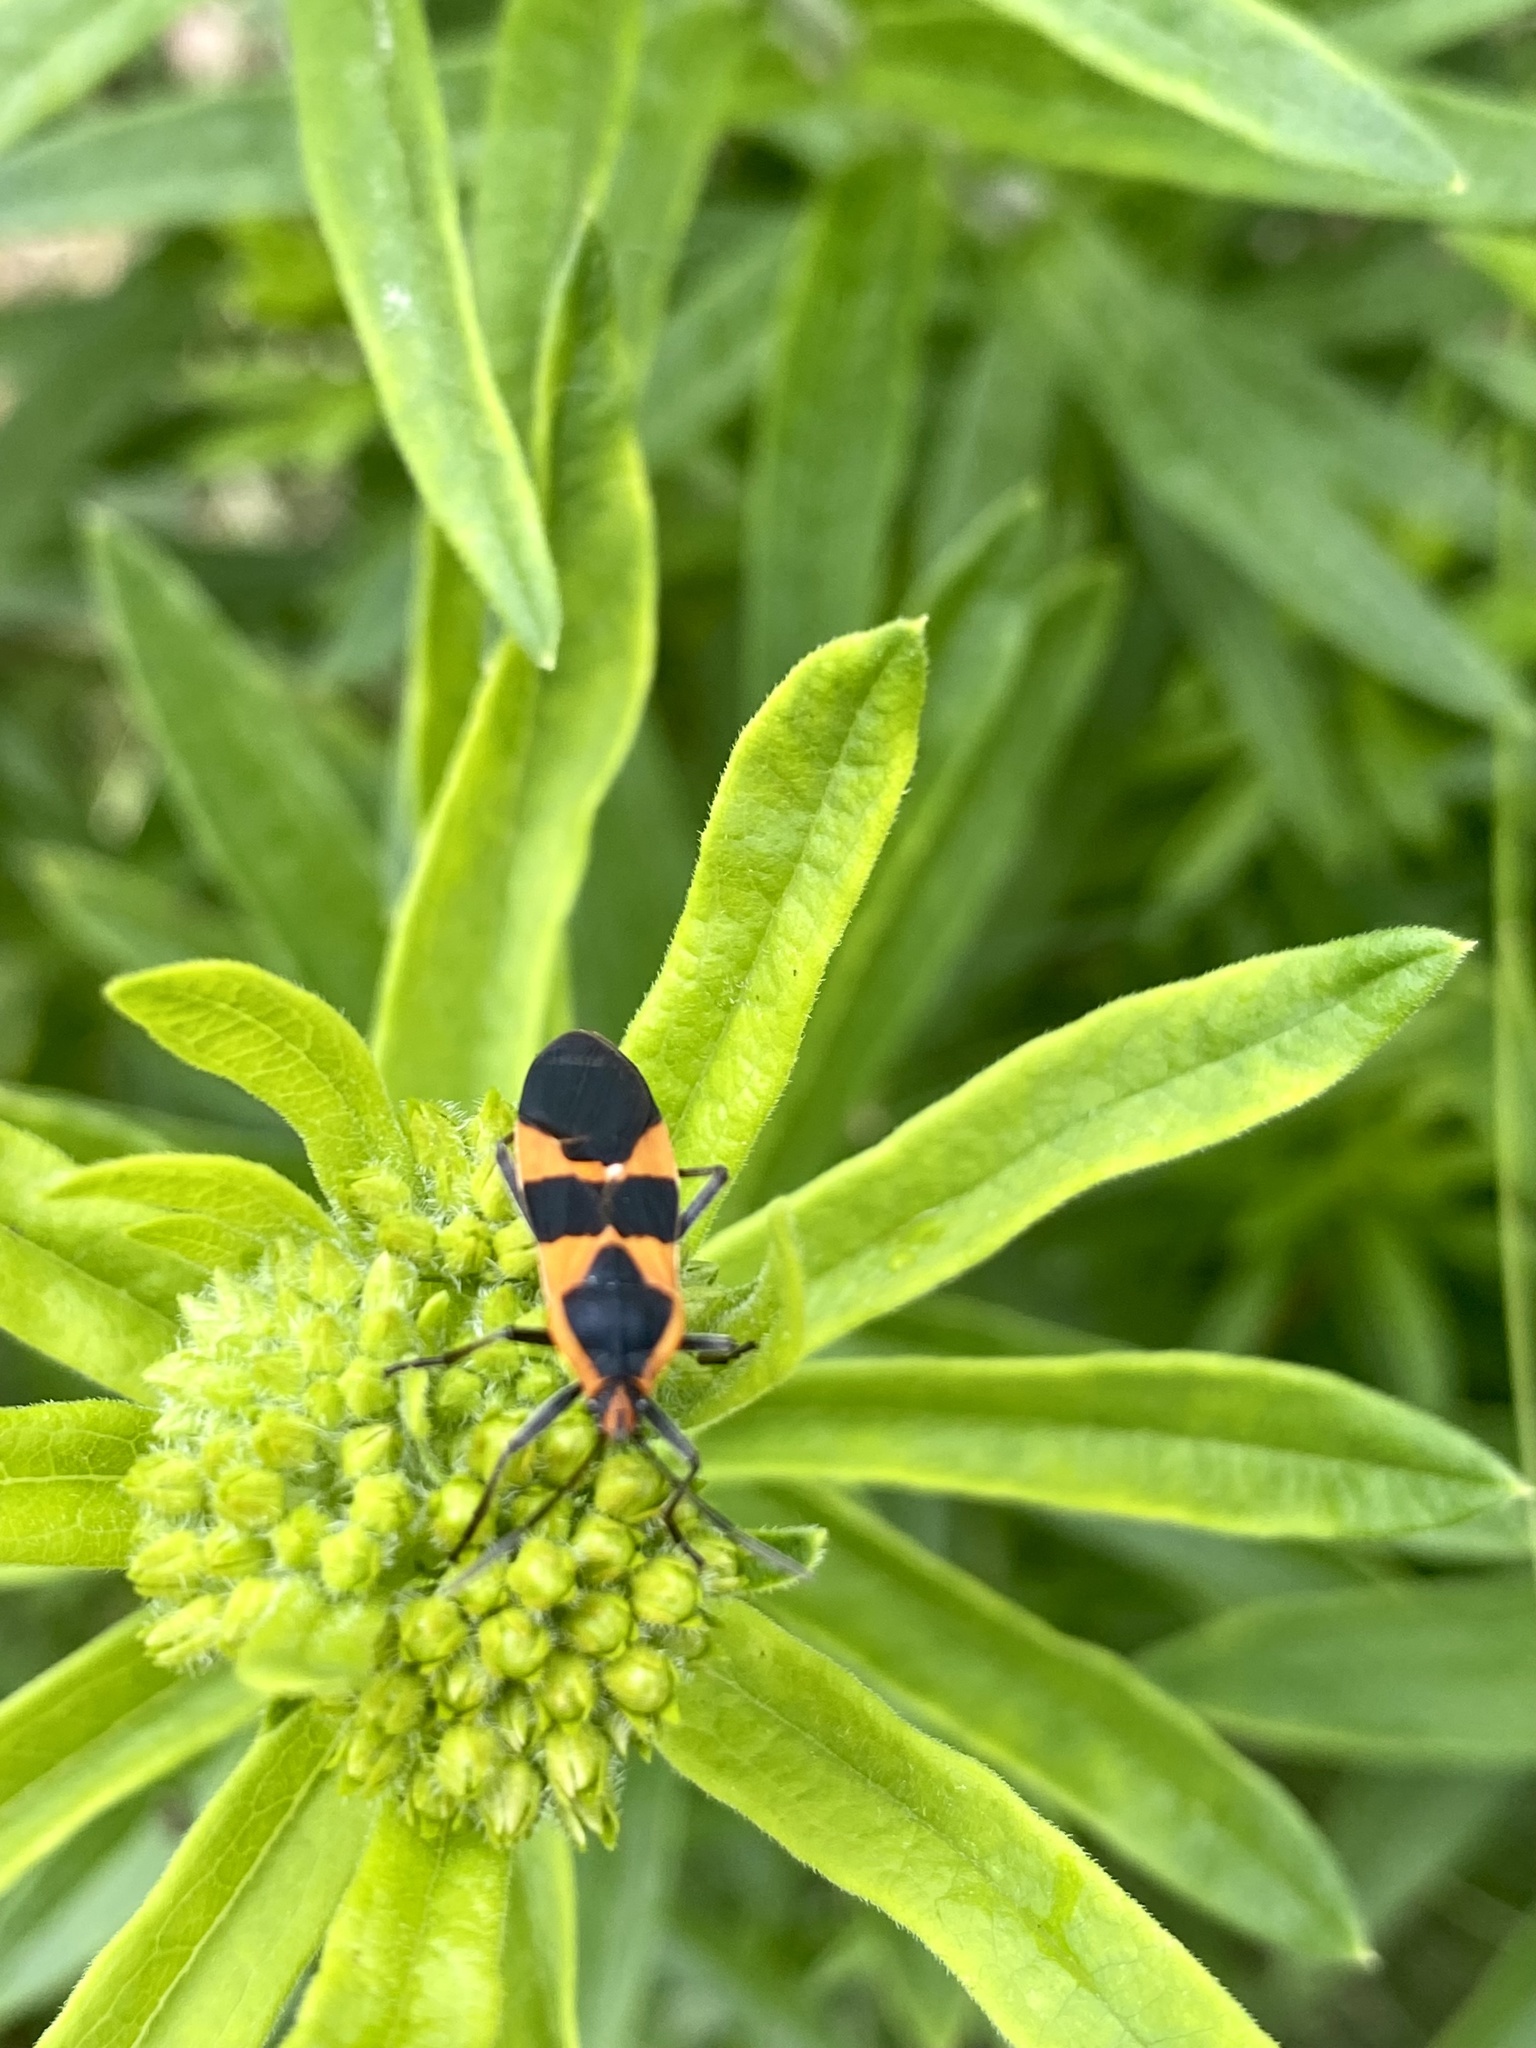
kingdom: Animalia
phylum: Arthropoda
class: Insecta
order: Hemiptera
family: Lygaeidae
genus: Oncopeltus
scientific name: Oncopeltus fasciatus
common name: Large milkweed bug
